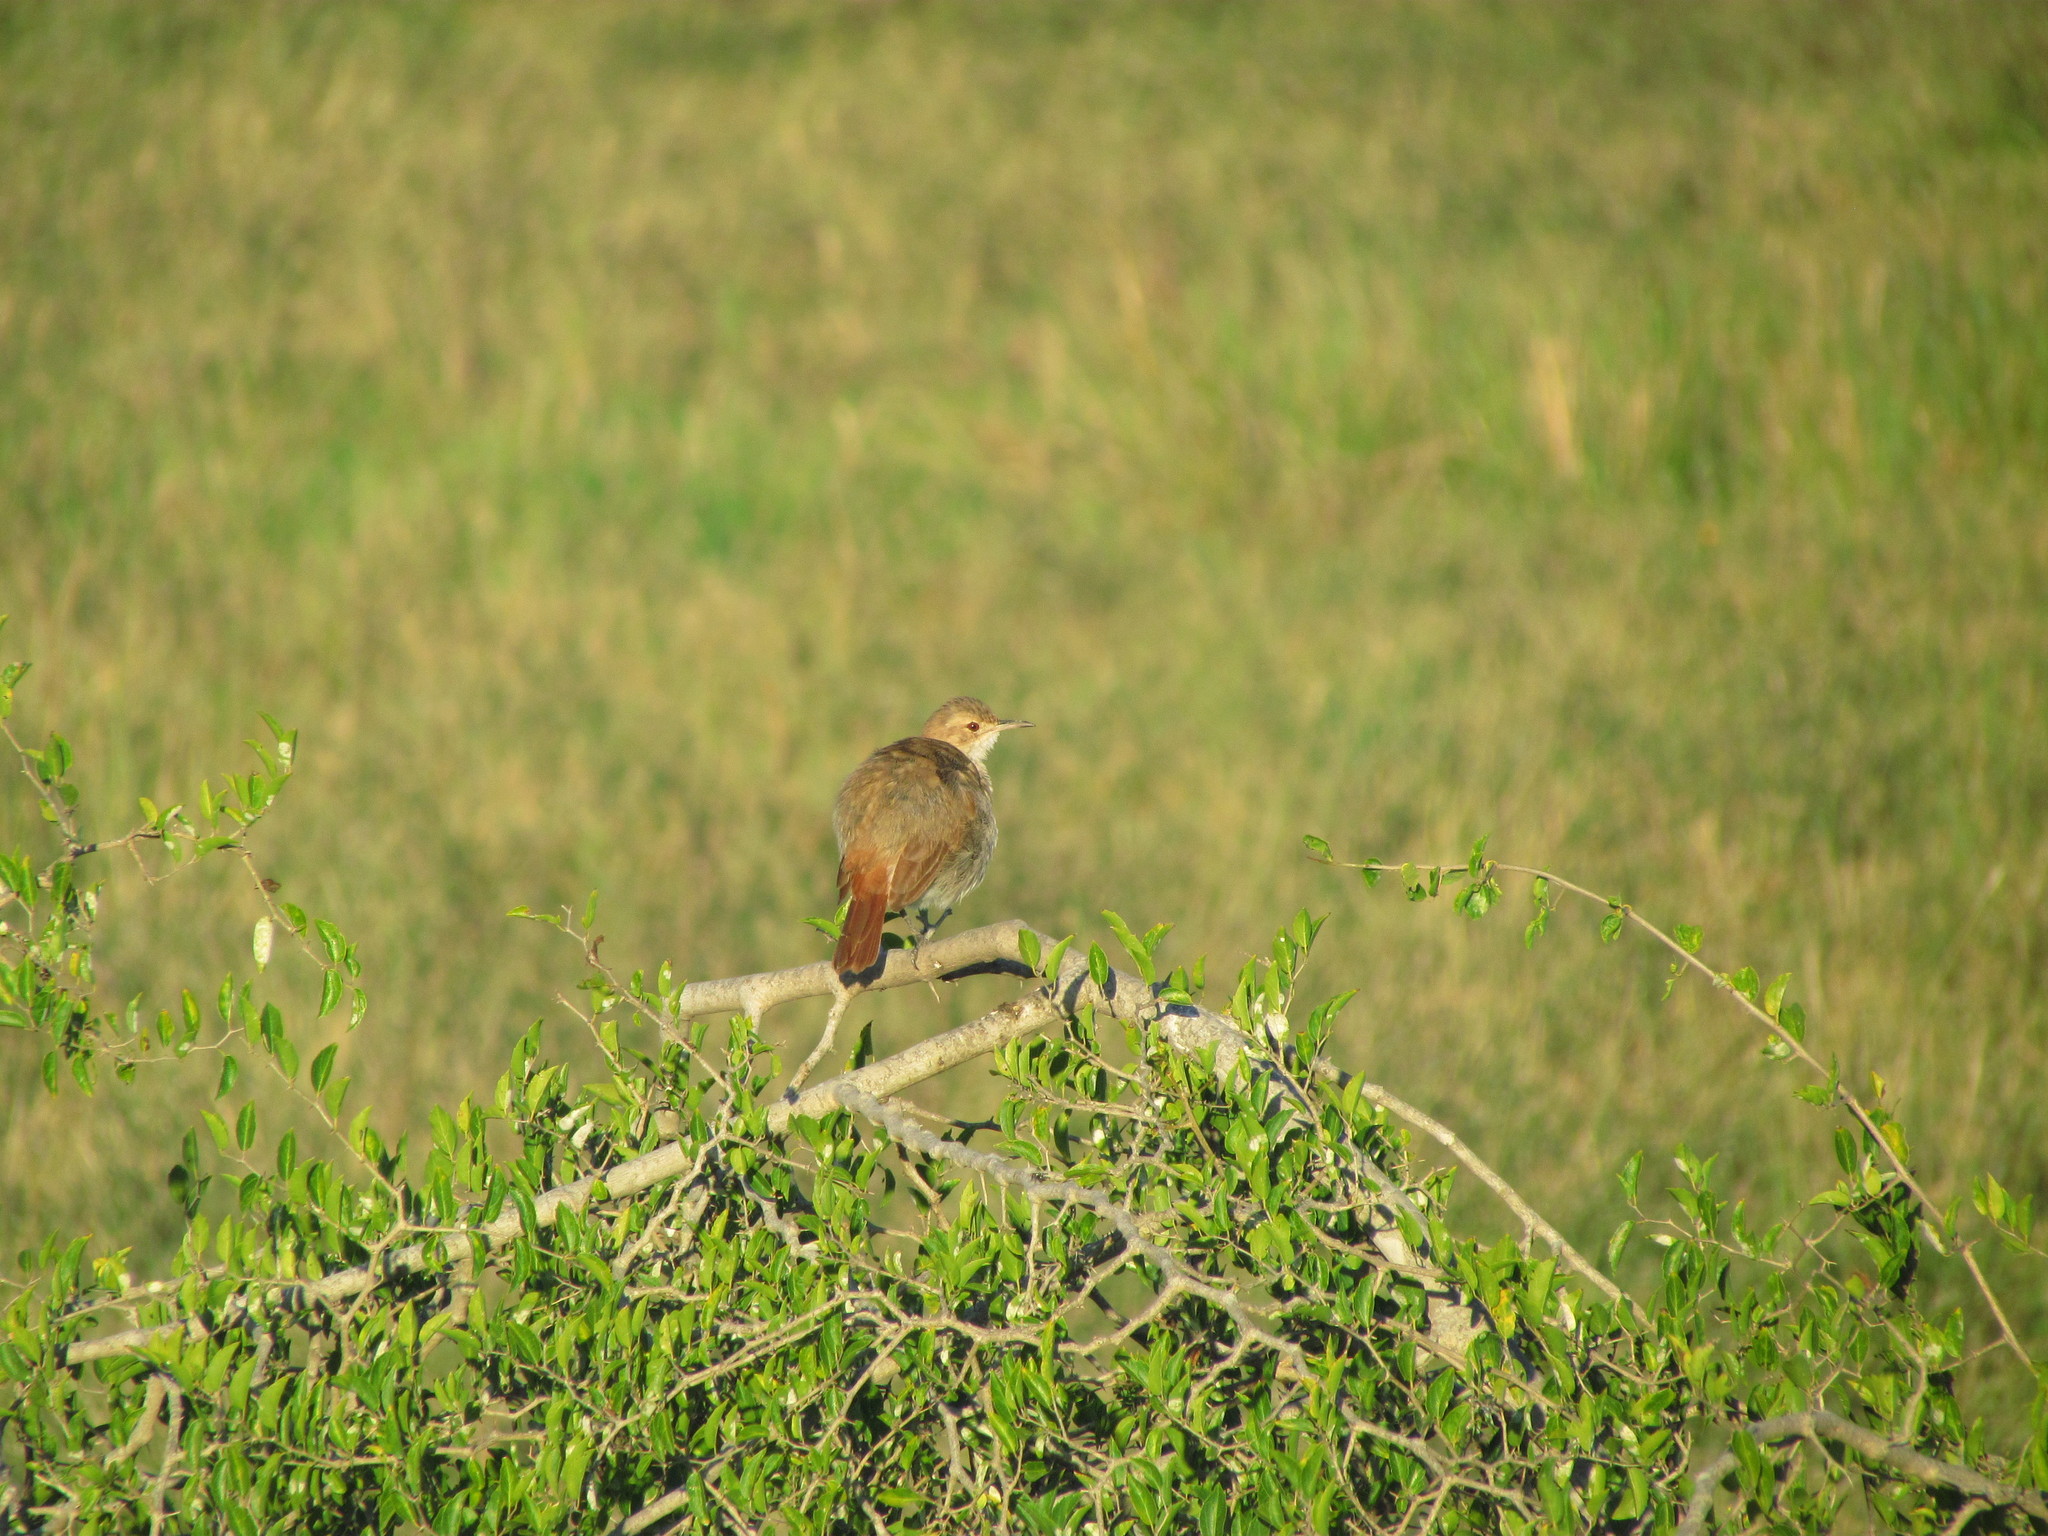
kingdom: Animalia
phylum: Chordata
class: Aves
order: Passeriformes
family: Furnariidae
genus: Furnarius
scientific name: Furnarius rufus
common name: Rufous hornero
